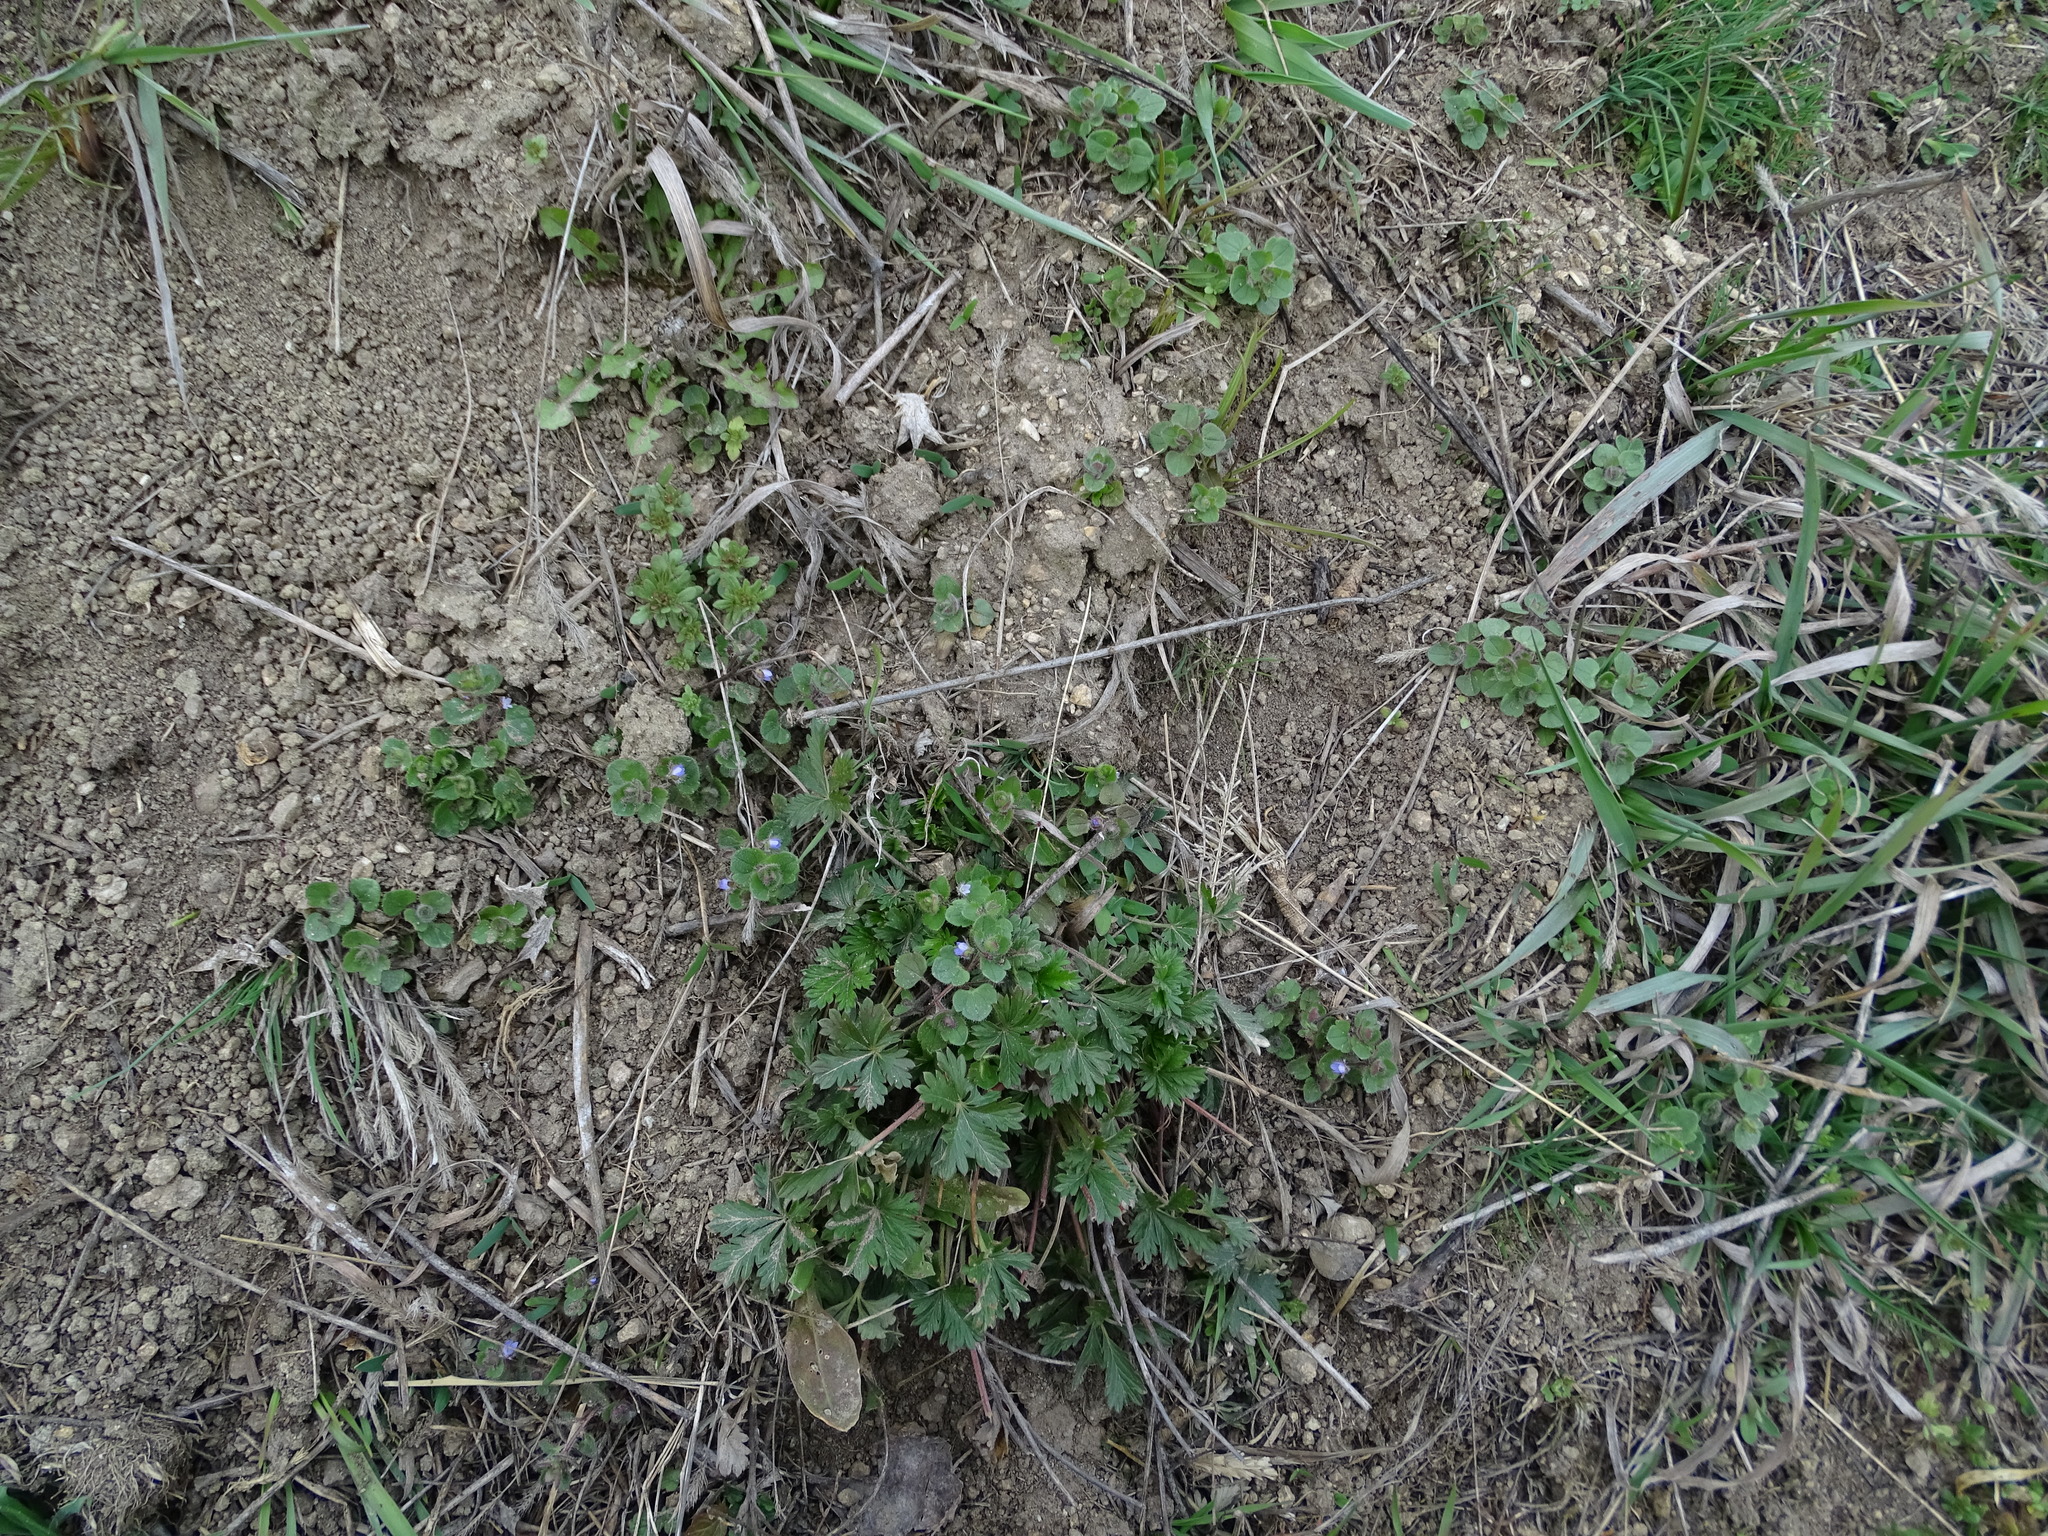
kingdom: Plantae
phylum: Tracheophyta
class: Magnoliopsida
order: Lamiales
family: Plantaginaceae
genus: Veronica
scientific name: Veronica hederifolia
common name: Ivy-leaved speedwell
